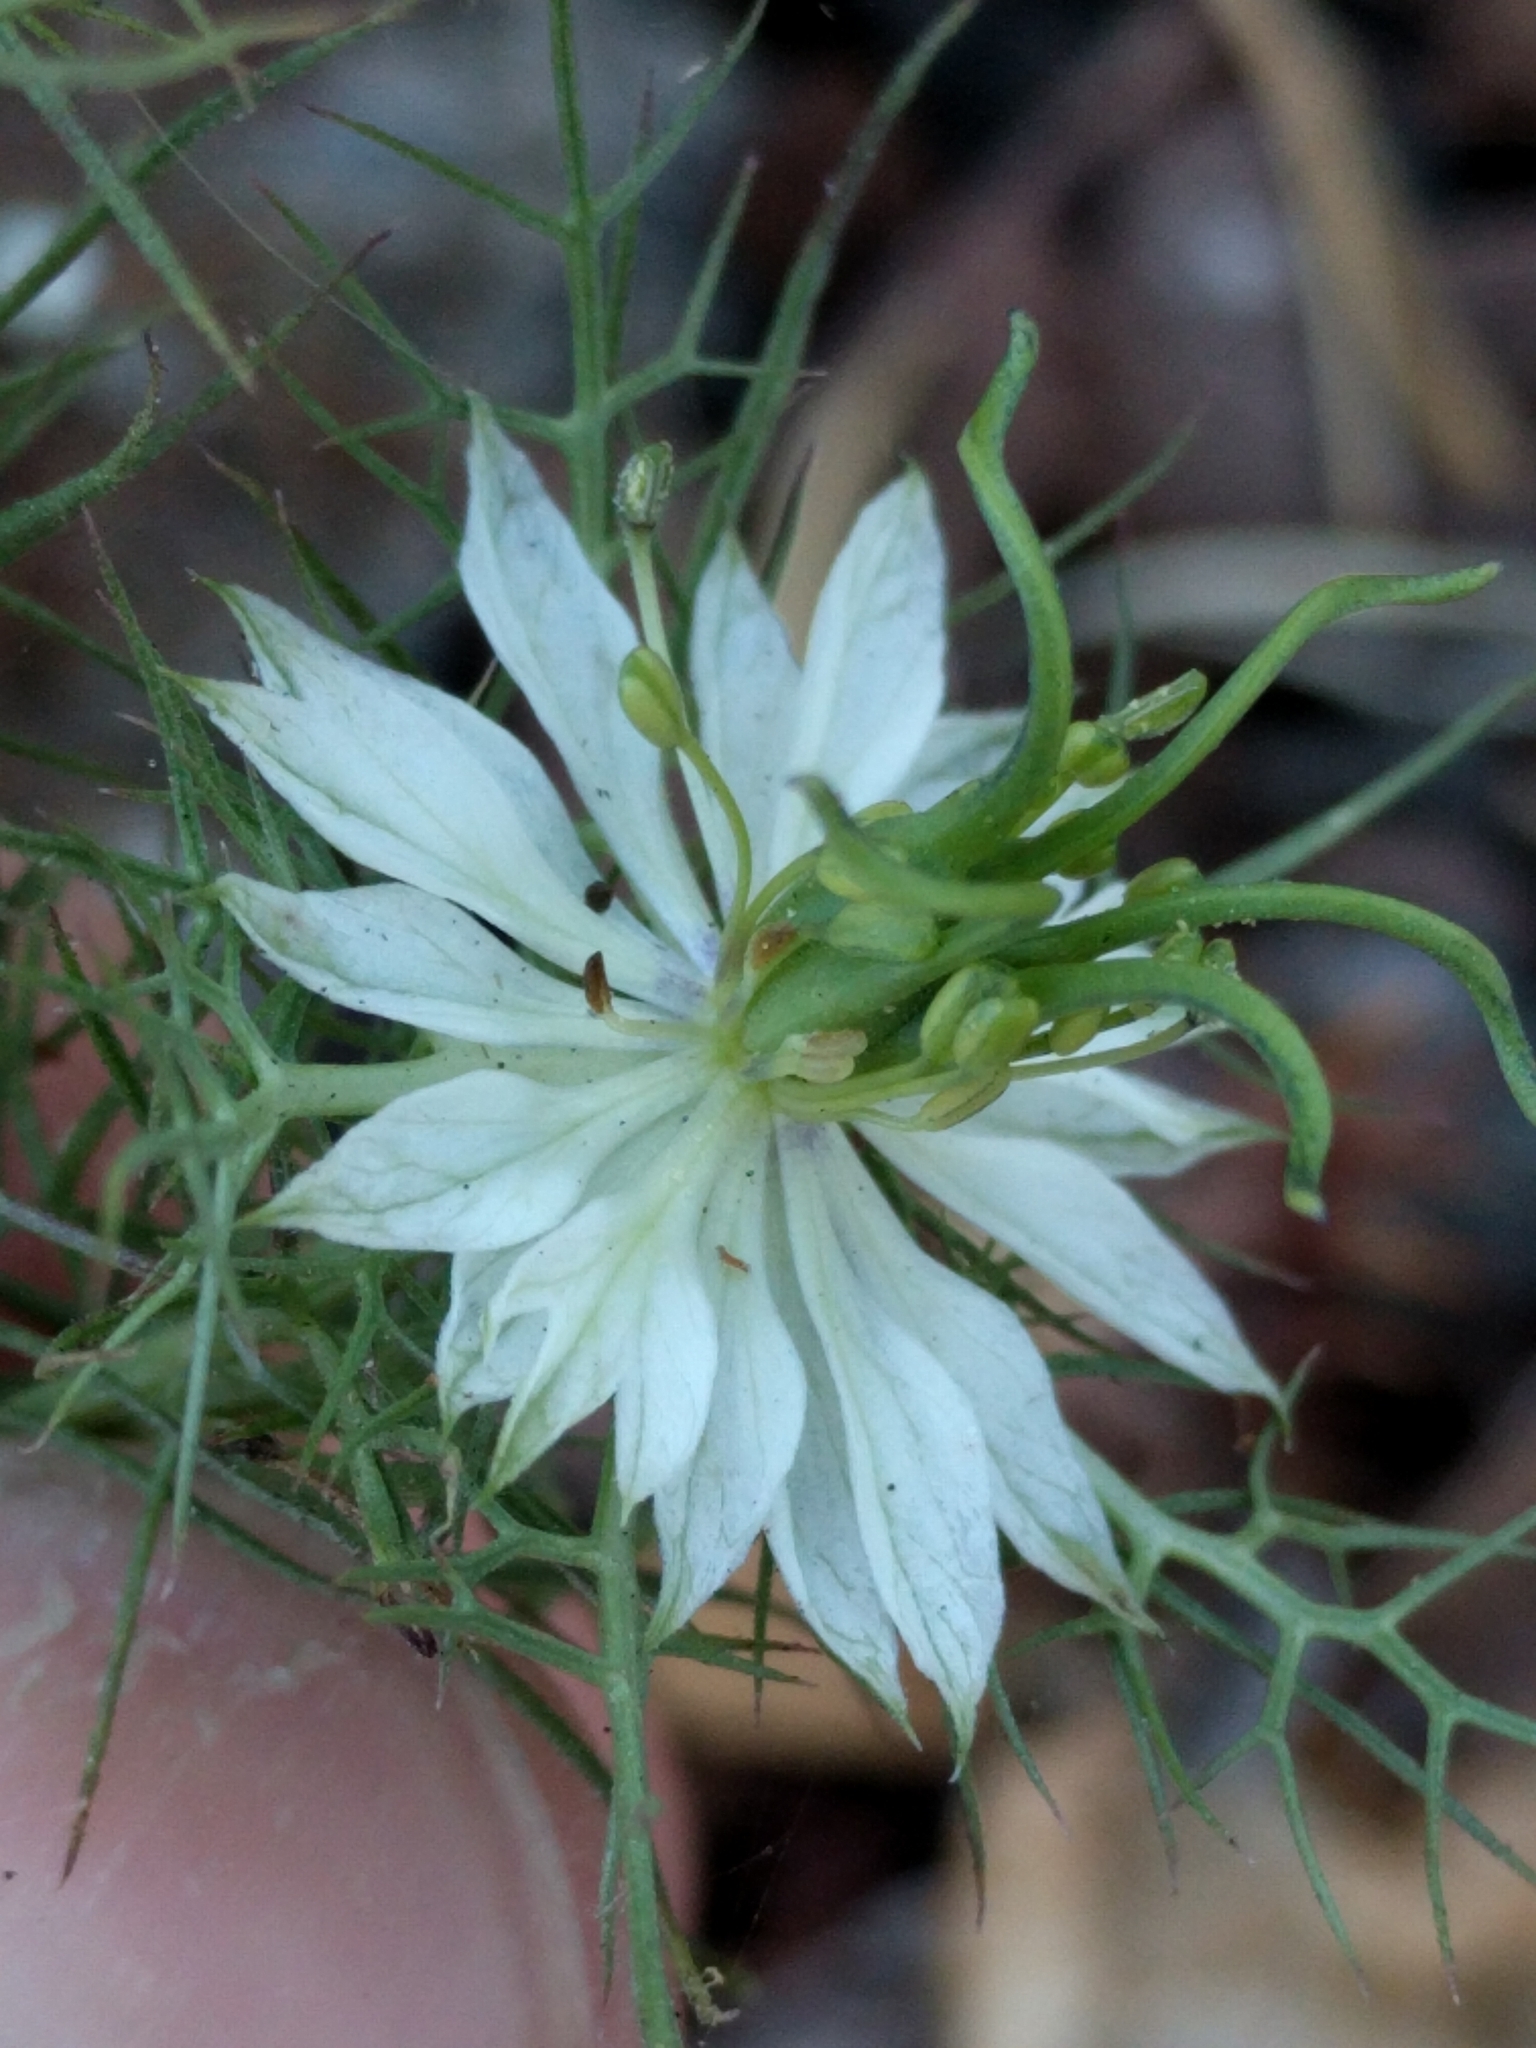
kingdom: Plantae
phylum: Tracheophyta
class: Magnoliopsida
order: Ranunculales
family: Ranunculaceae
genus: Nigella
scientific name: Nigella damascena
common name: Love-in-a-mist
